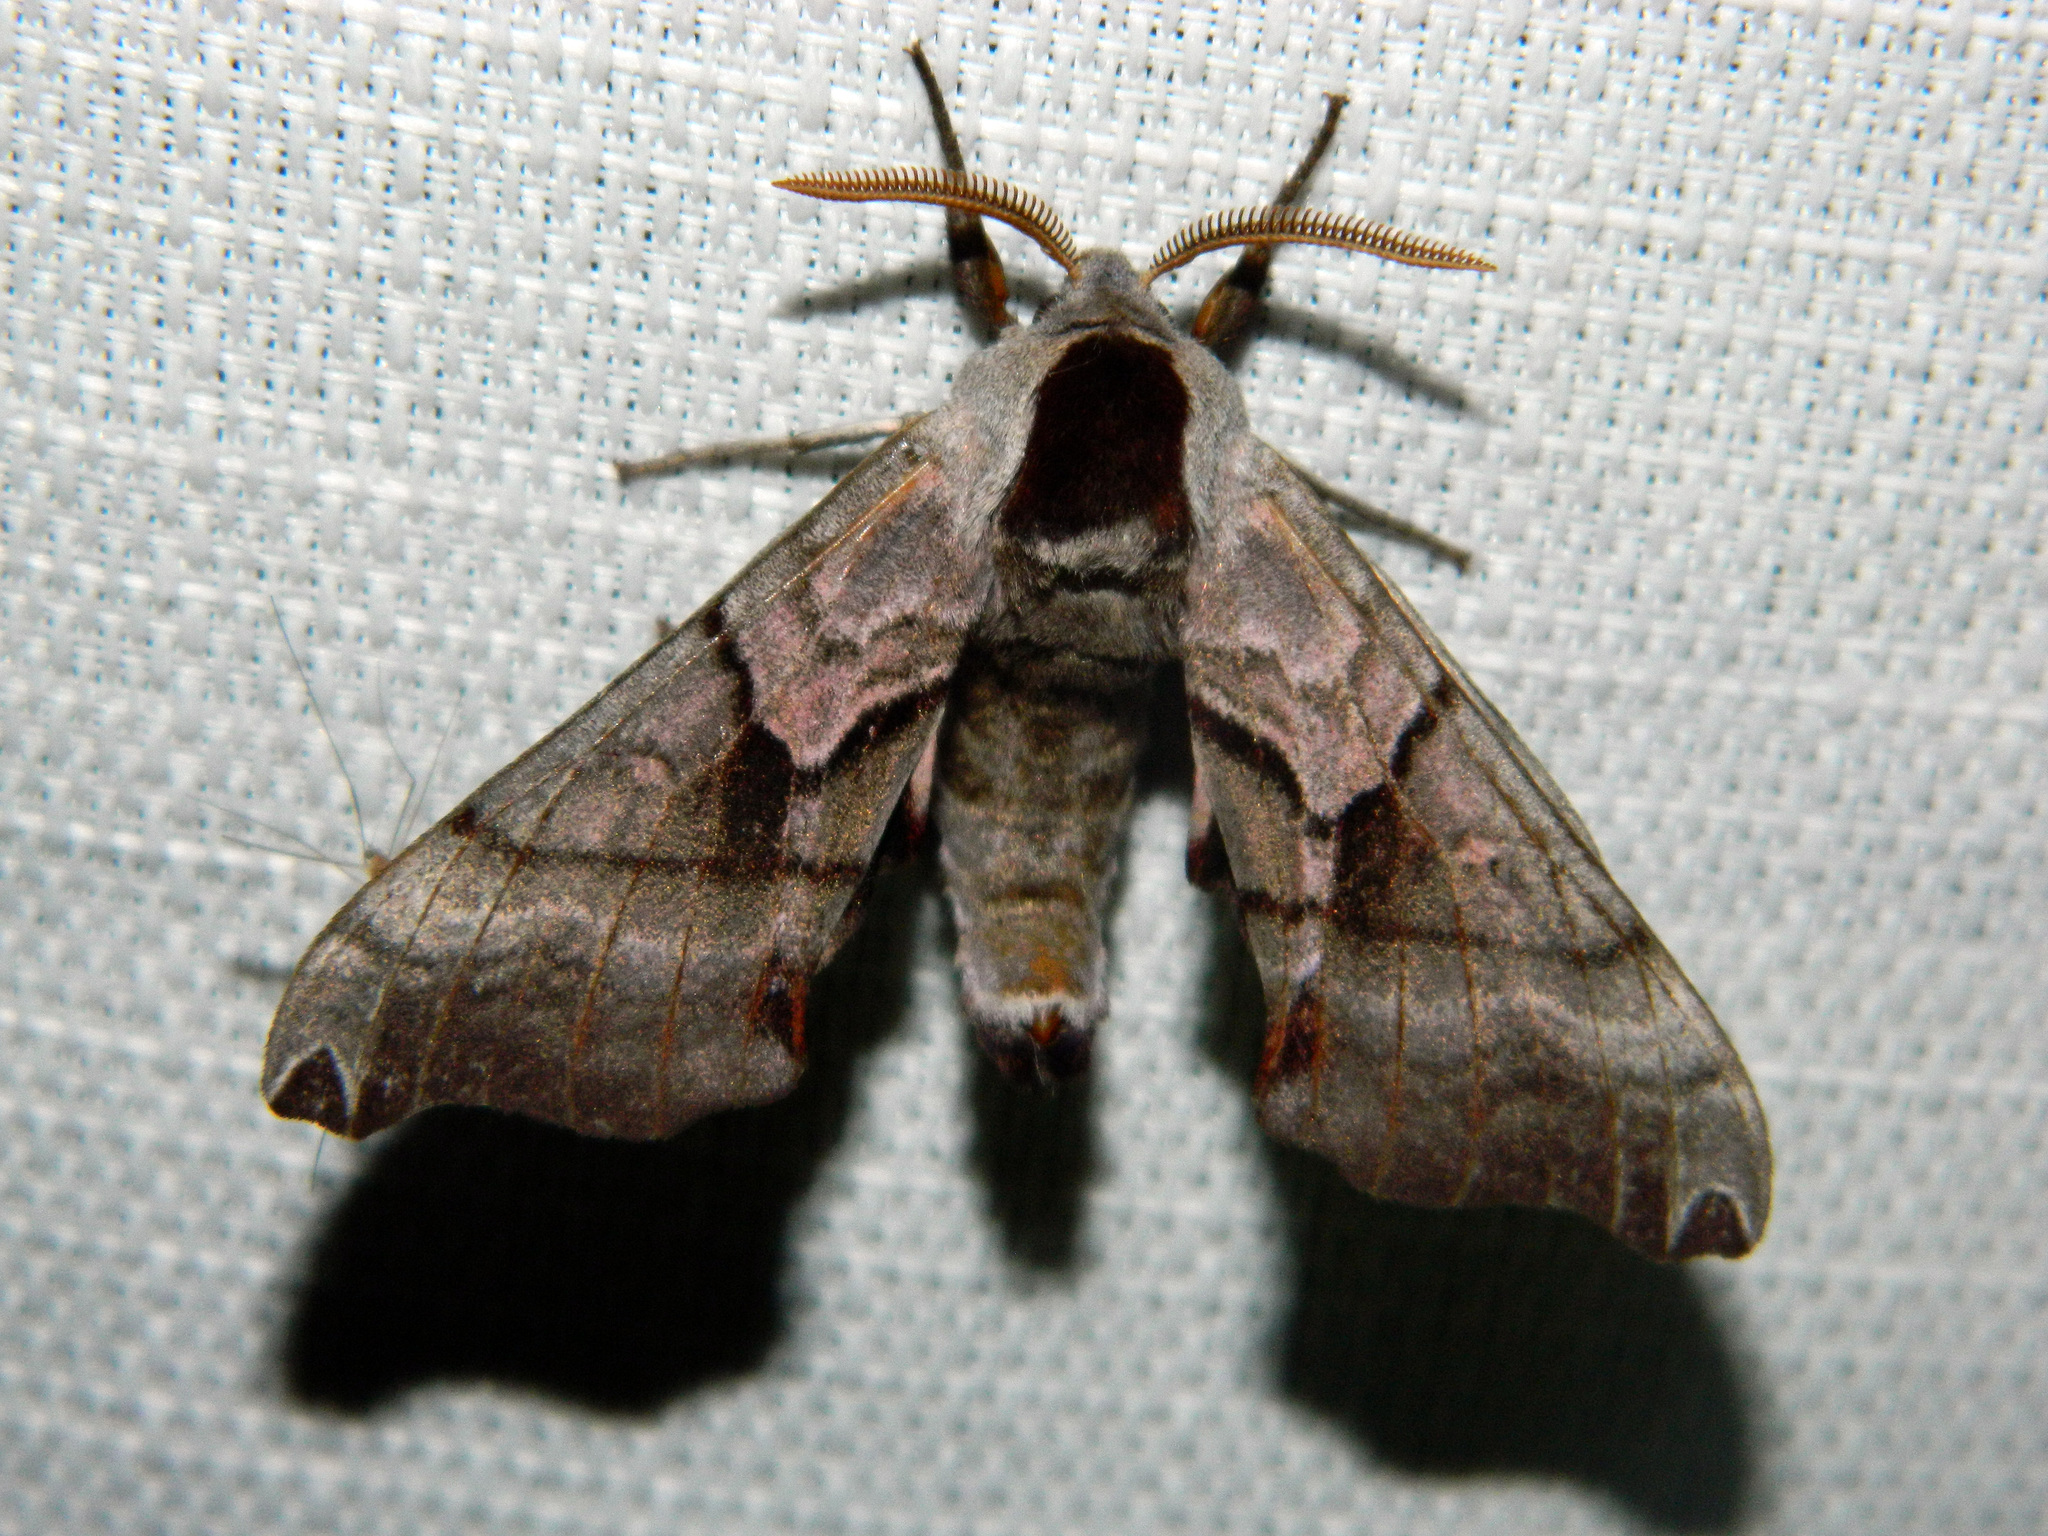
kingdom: Animalia
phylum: Arthropoda
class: Insecta
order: Lepidoptera
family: Sphingidae
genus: Smerinthus
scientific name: Smerinthus jamaicensis
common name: Twin spotted sphinx
